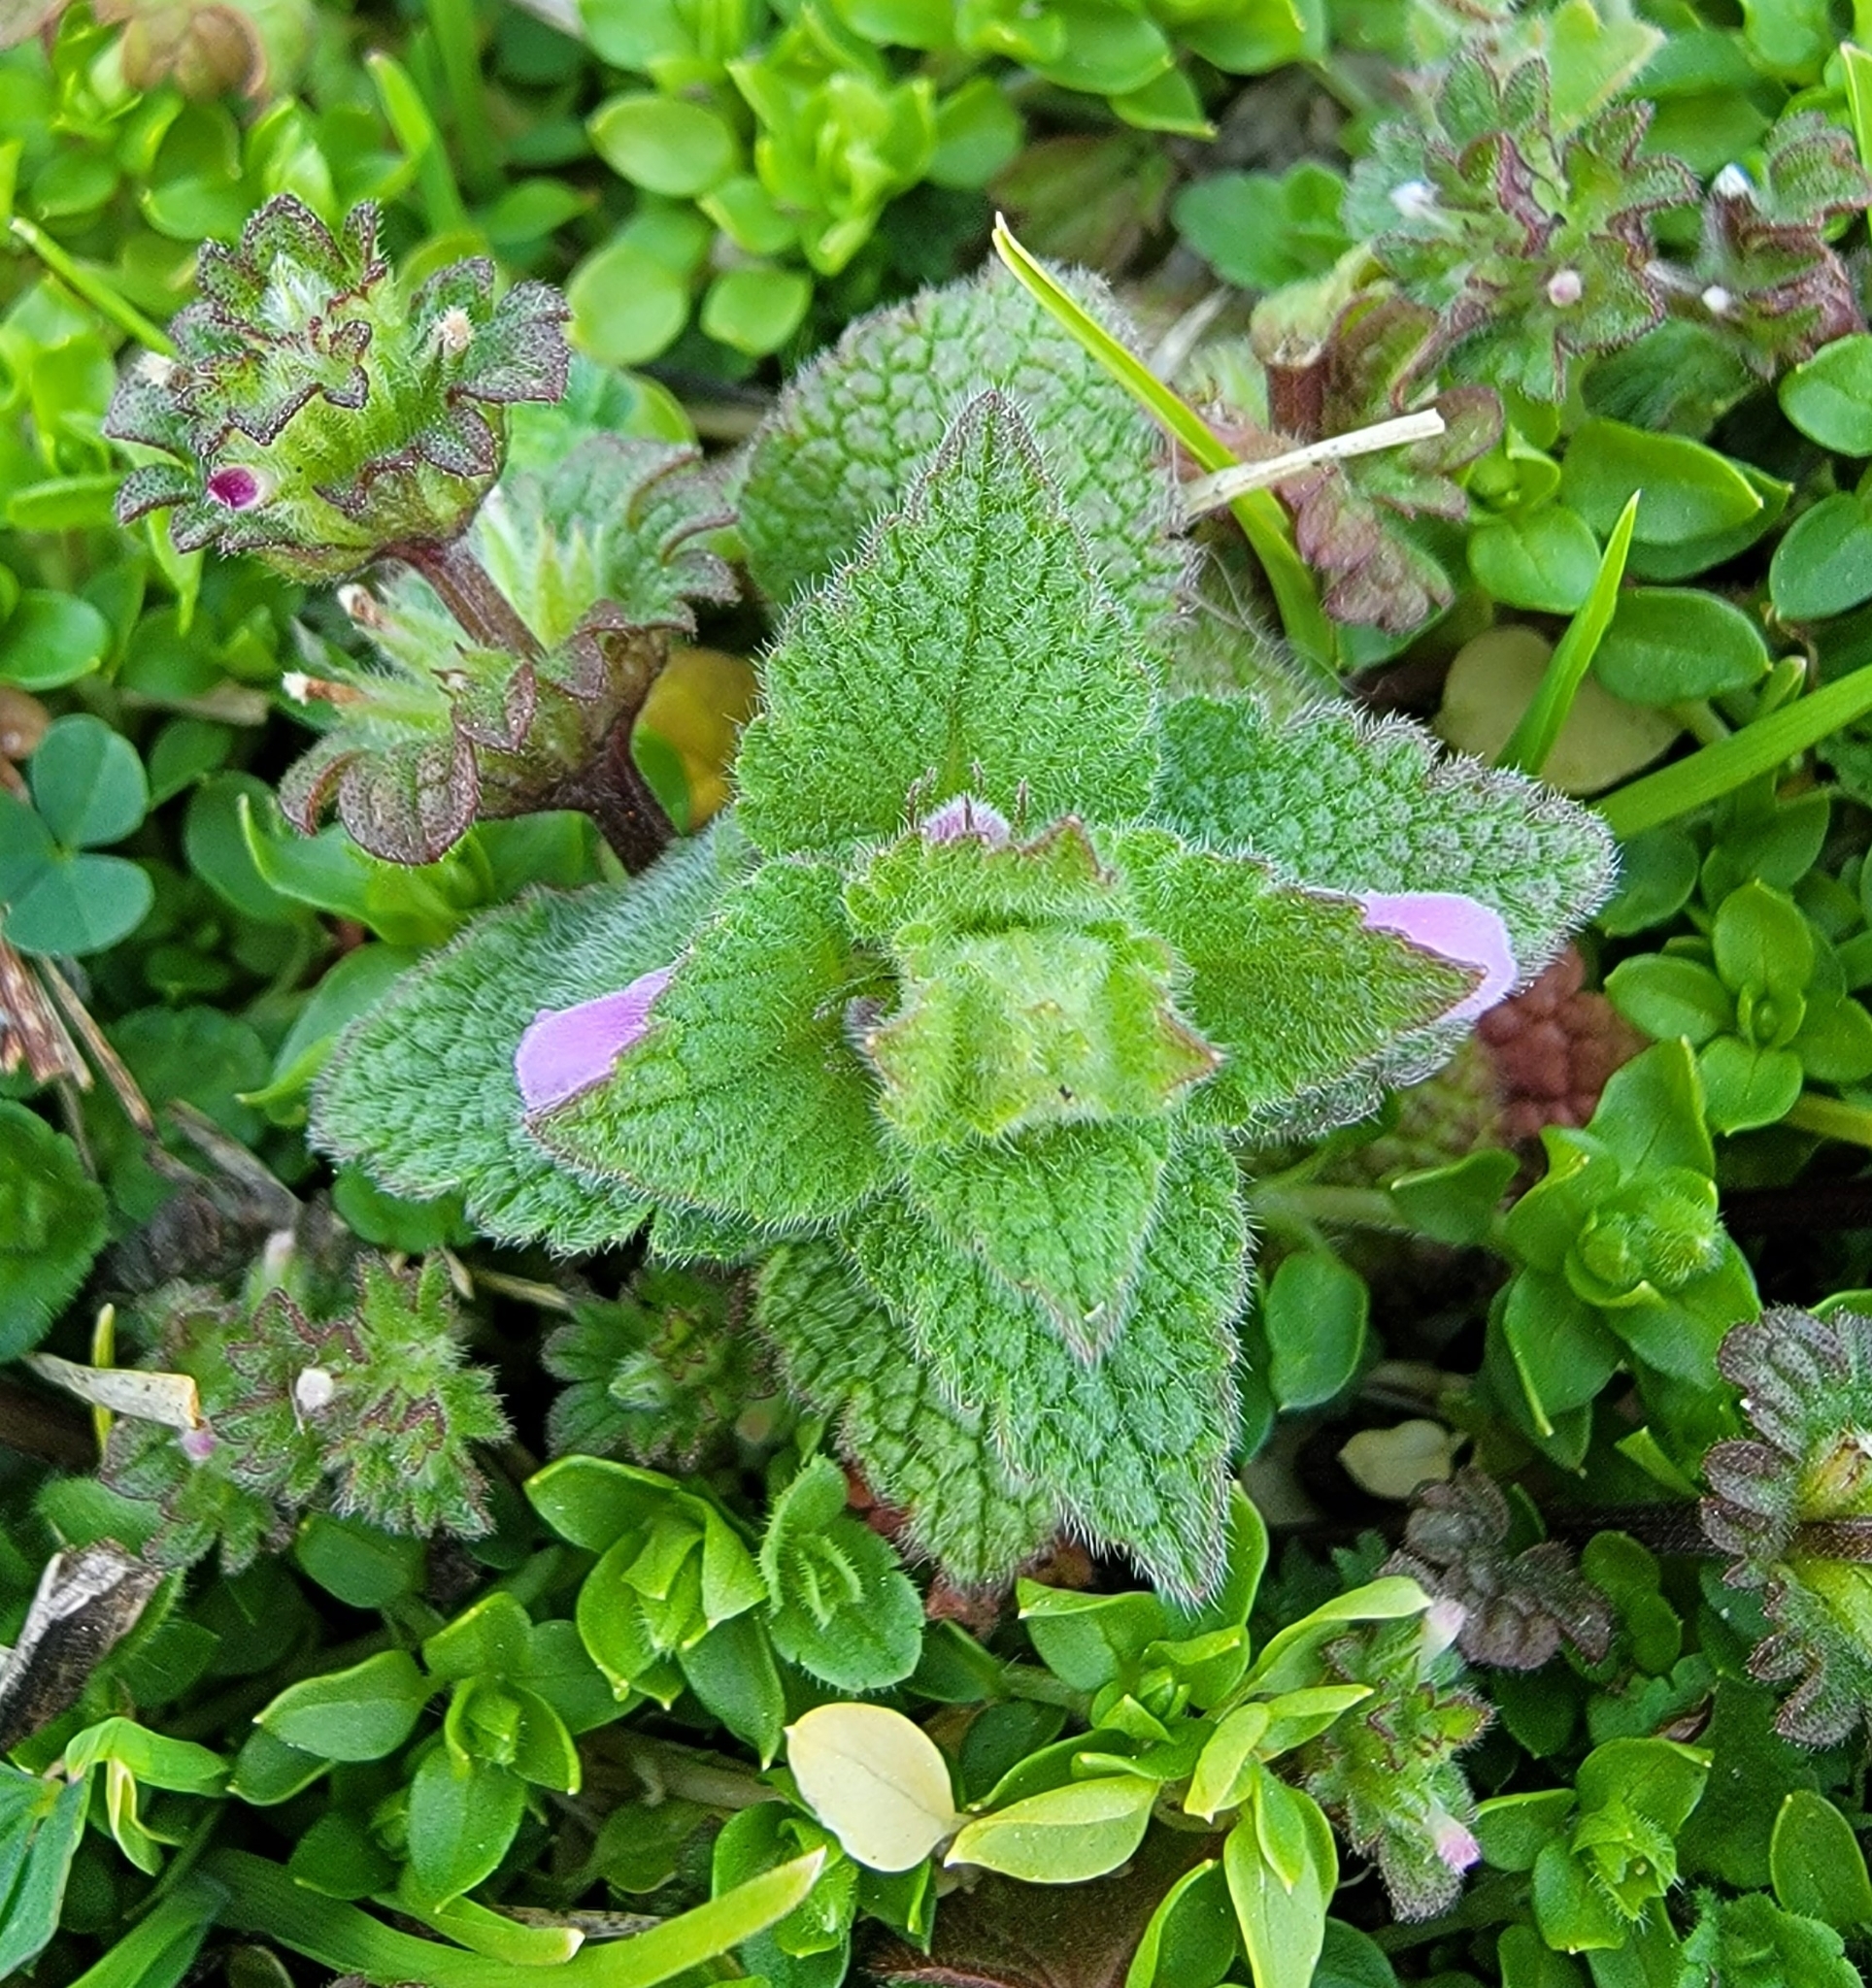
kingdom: Plantae
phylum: Tracheophyta
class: Magnoliopsida
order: Lamiales
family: Lamiaceae
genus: Lamium
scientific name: Lamium purpureum
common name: Red dead-nettle
